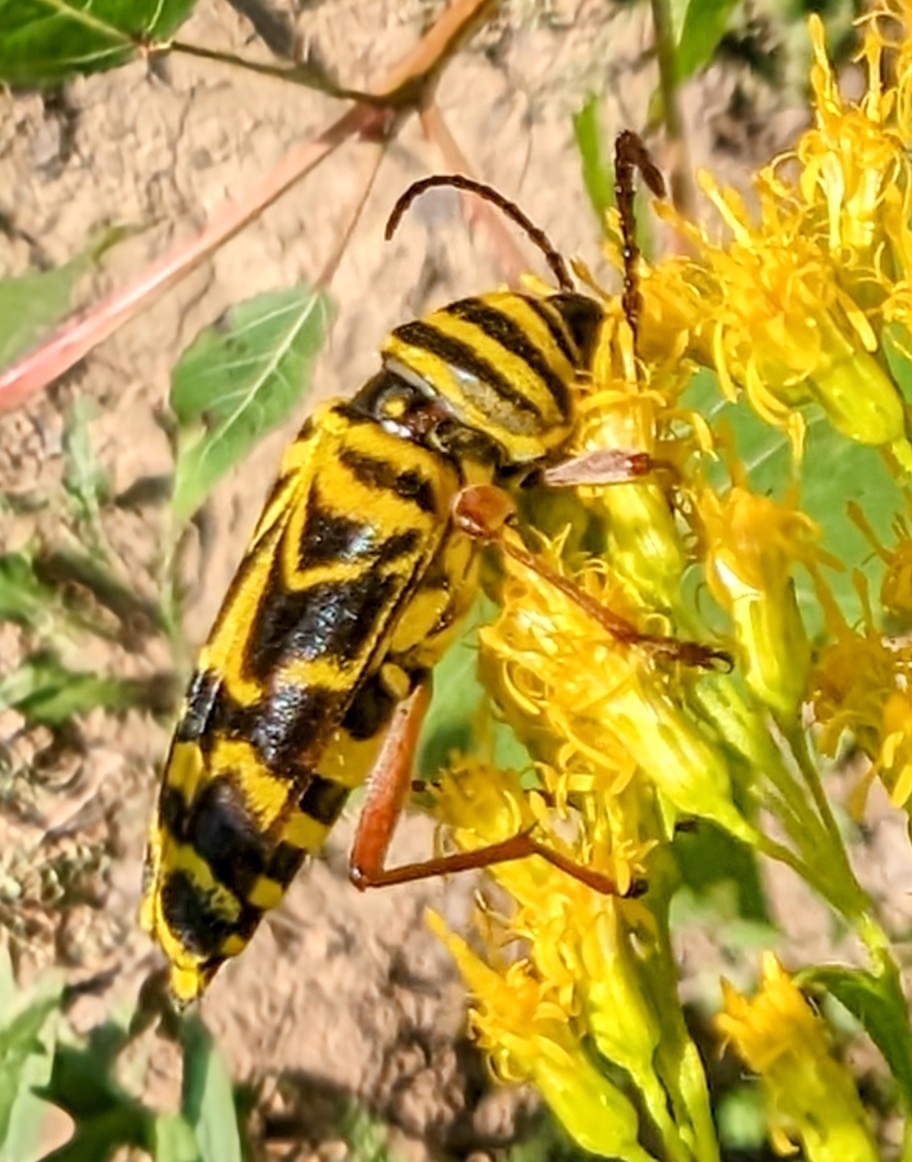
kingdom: Animalia
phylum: Arthropoda
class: Insecta
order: Coleoptera
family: Cerambycidae
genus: Megacyllene
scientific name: Megacyllene robiniae
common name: Locust borer
